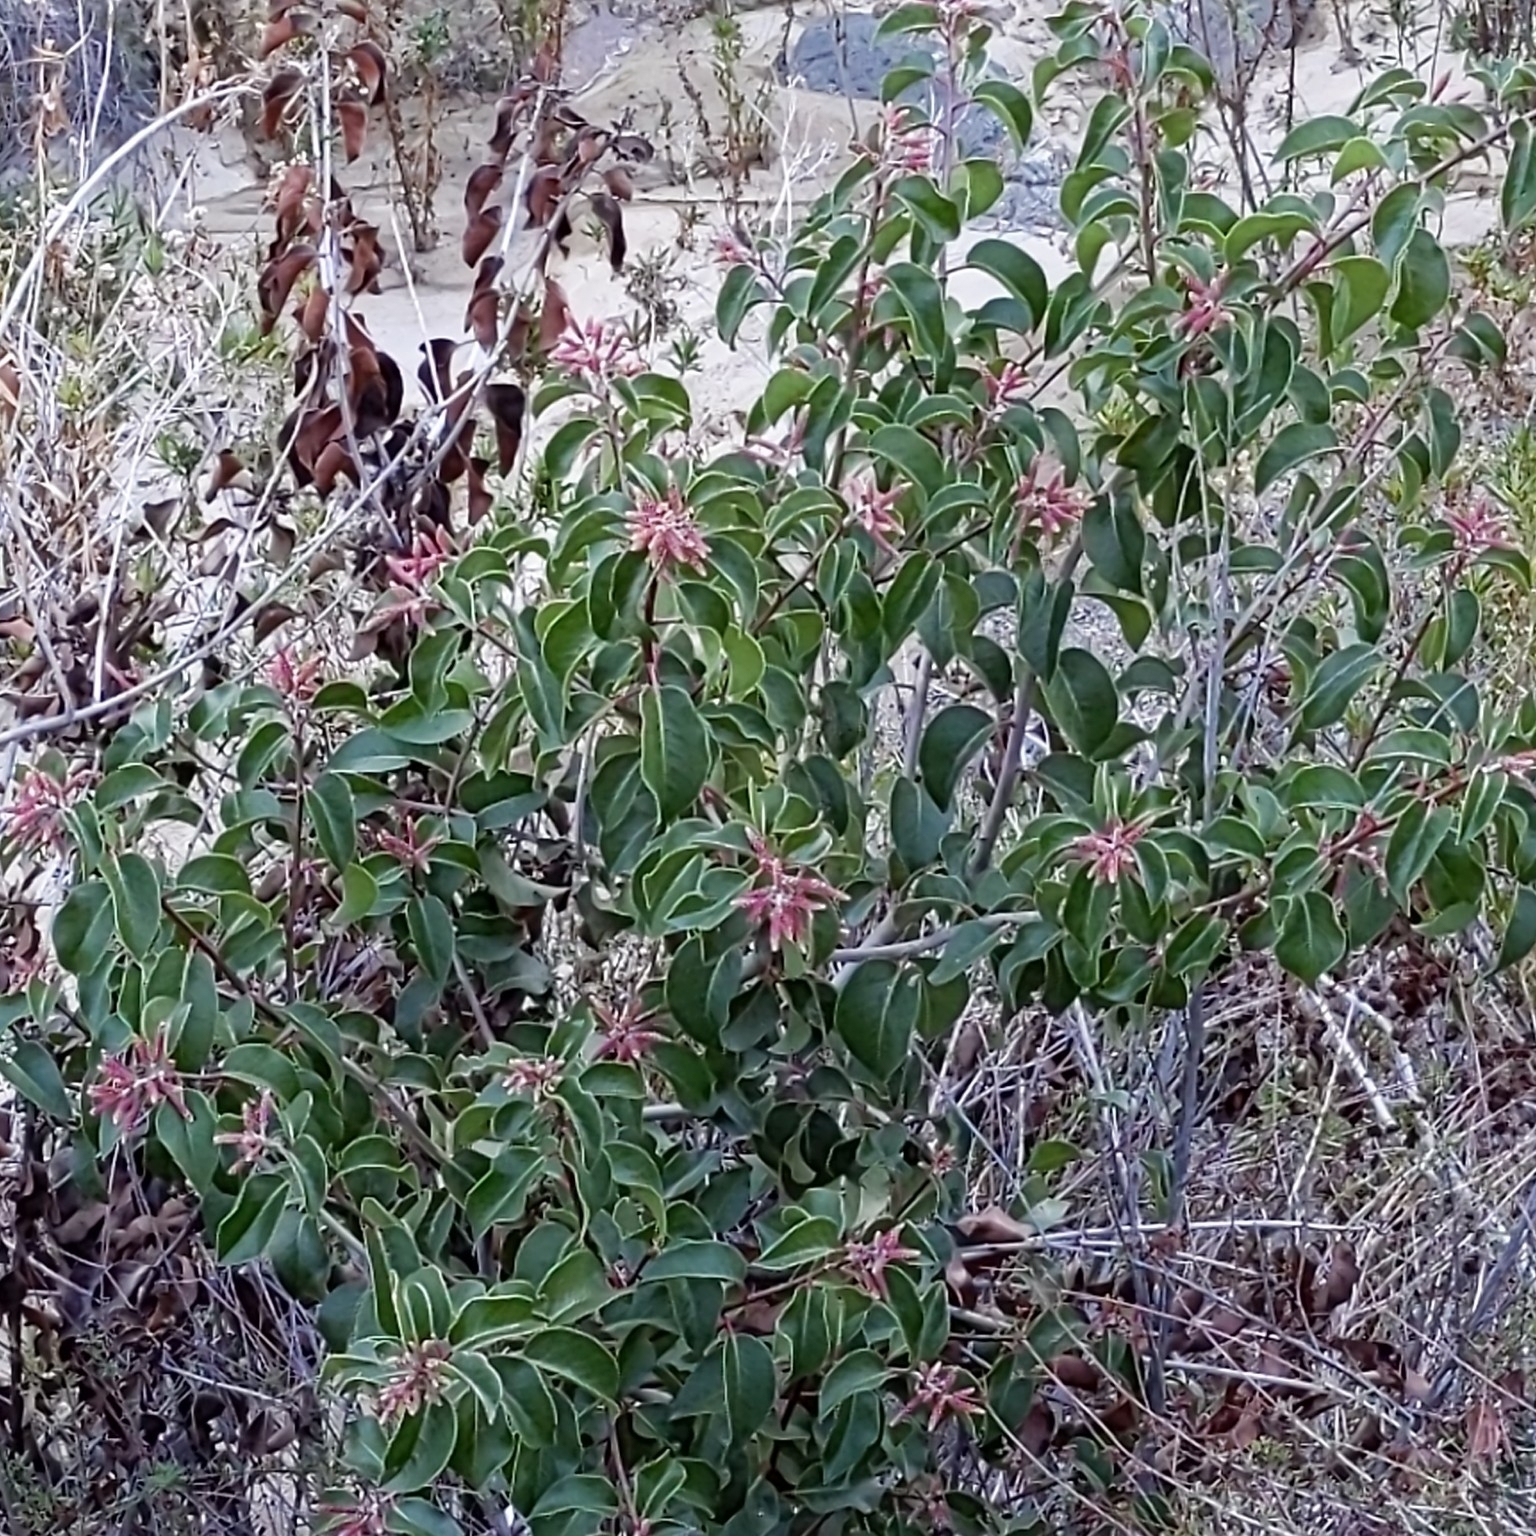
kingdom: Plantae
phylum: Tracheophyta
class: Magnoliopsida
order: Sapindales
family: Anacardiaceae
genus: Rhus
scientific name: Rhus ovata
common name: Sugar sumac
